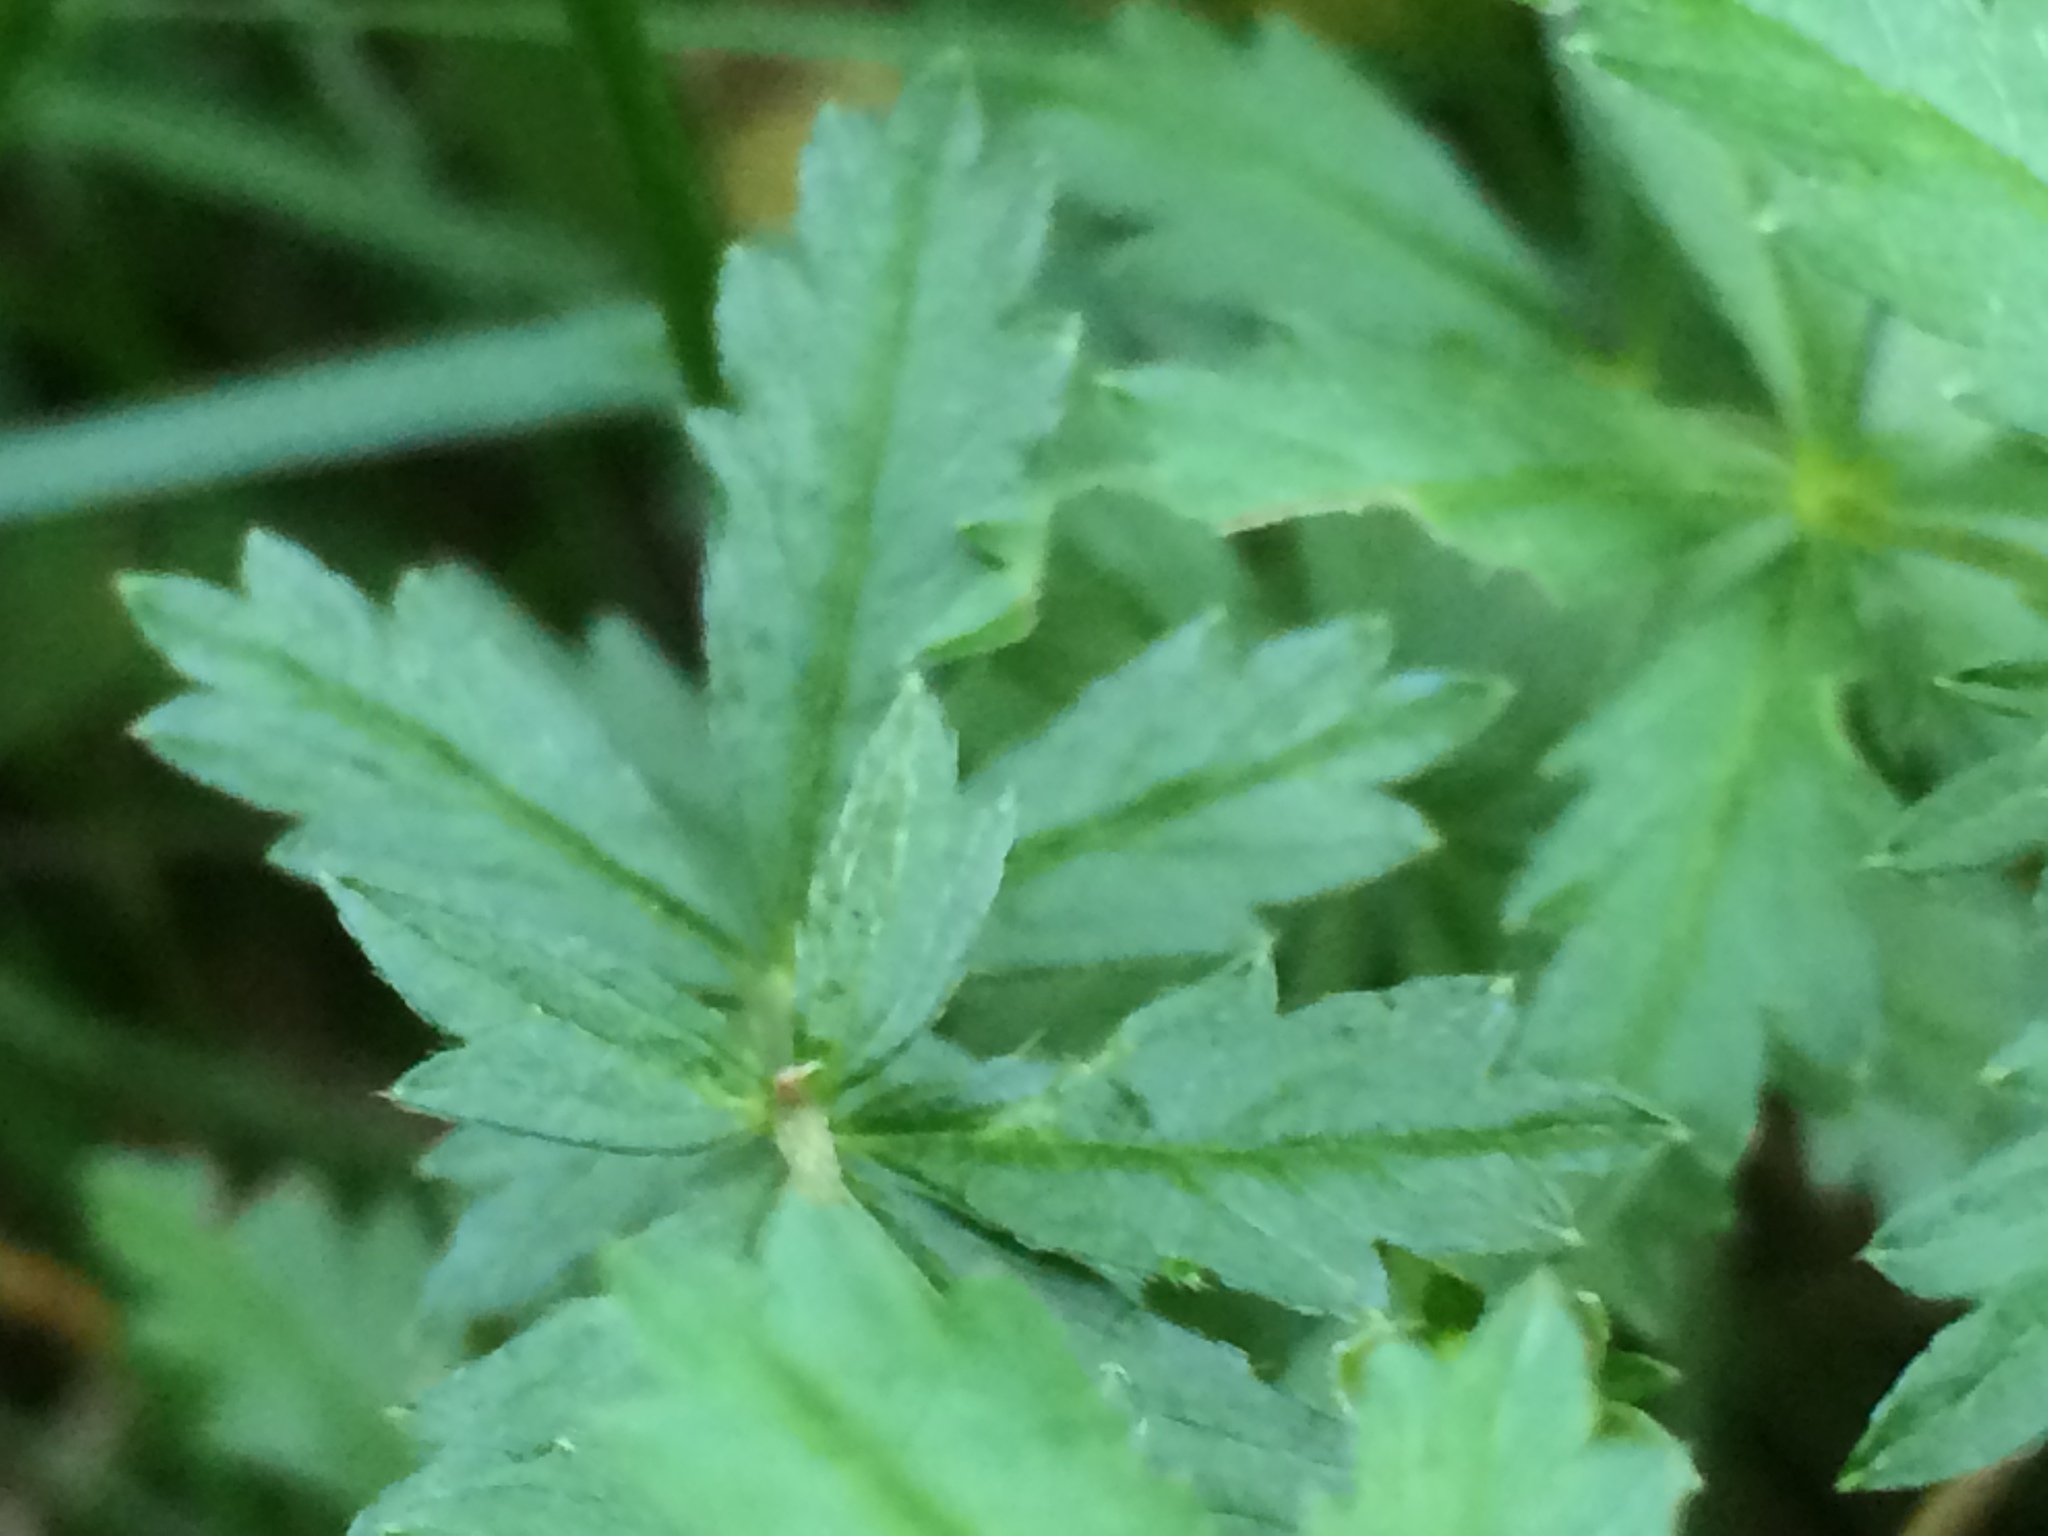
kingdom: Plantae
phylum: Tracheophyta
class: Magnoliopsida
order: Rosales
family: Rosaceae
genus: Potentilla
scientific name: Potentilla erecta
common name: Tormentil
